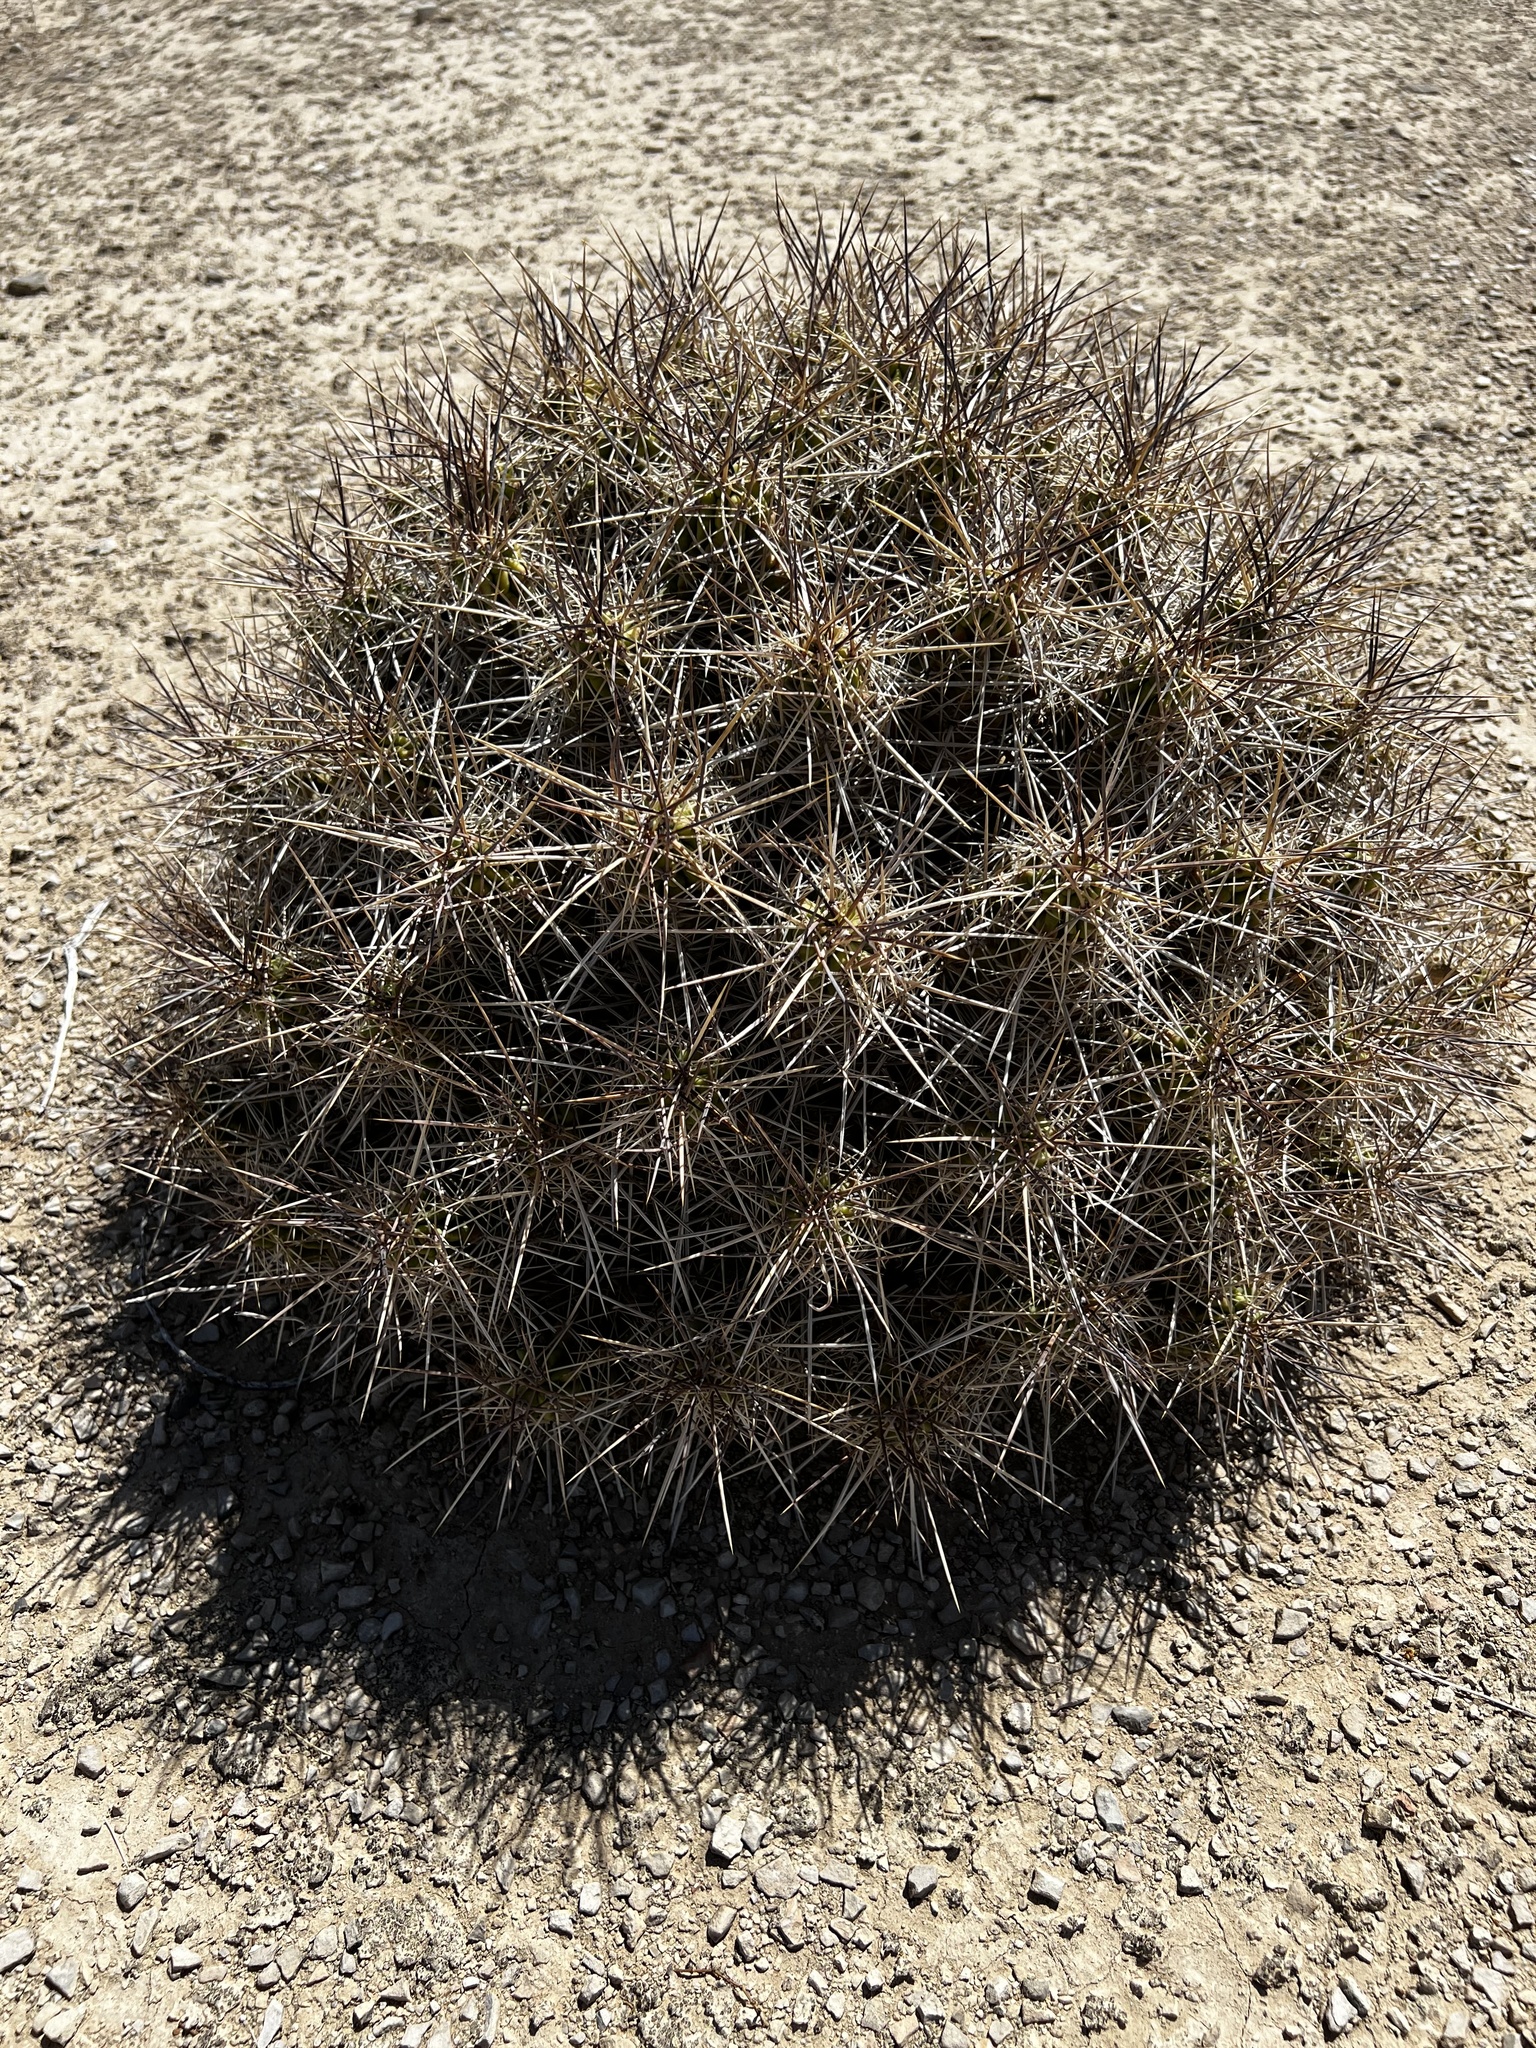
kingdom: Plantae
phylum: Tracheophyta
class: Magnoliopsida
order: Caryophyllales
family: Cactaceae
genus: Echinocereus
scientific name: Echinocereus enneacanthus
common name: Pitaya
